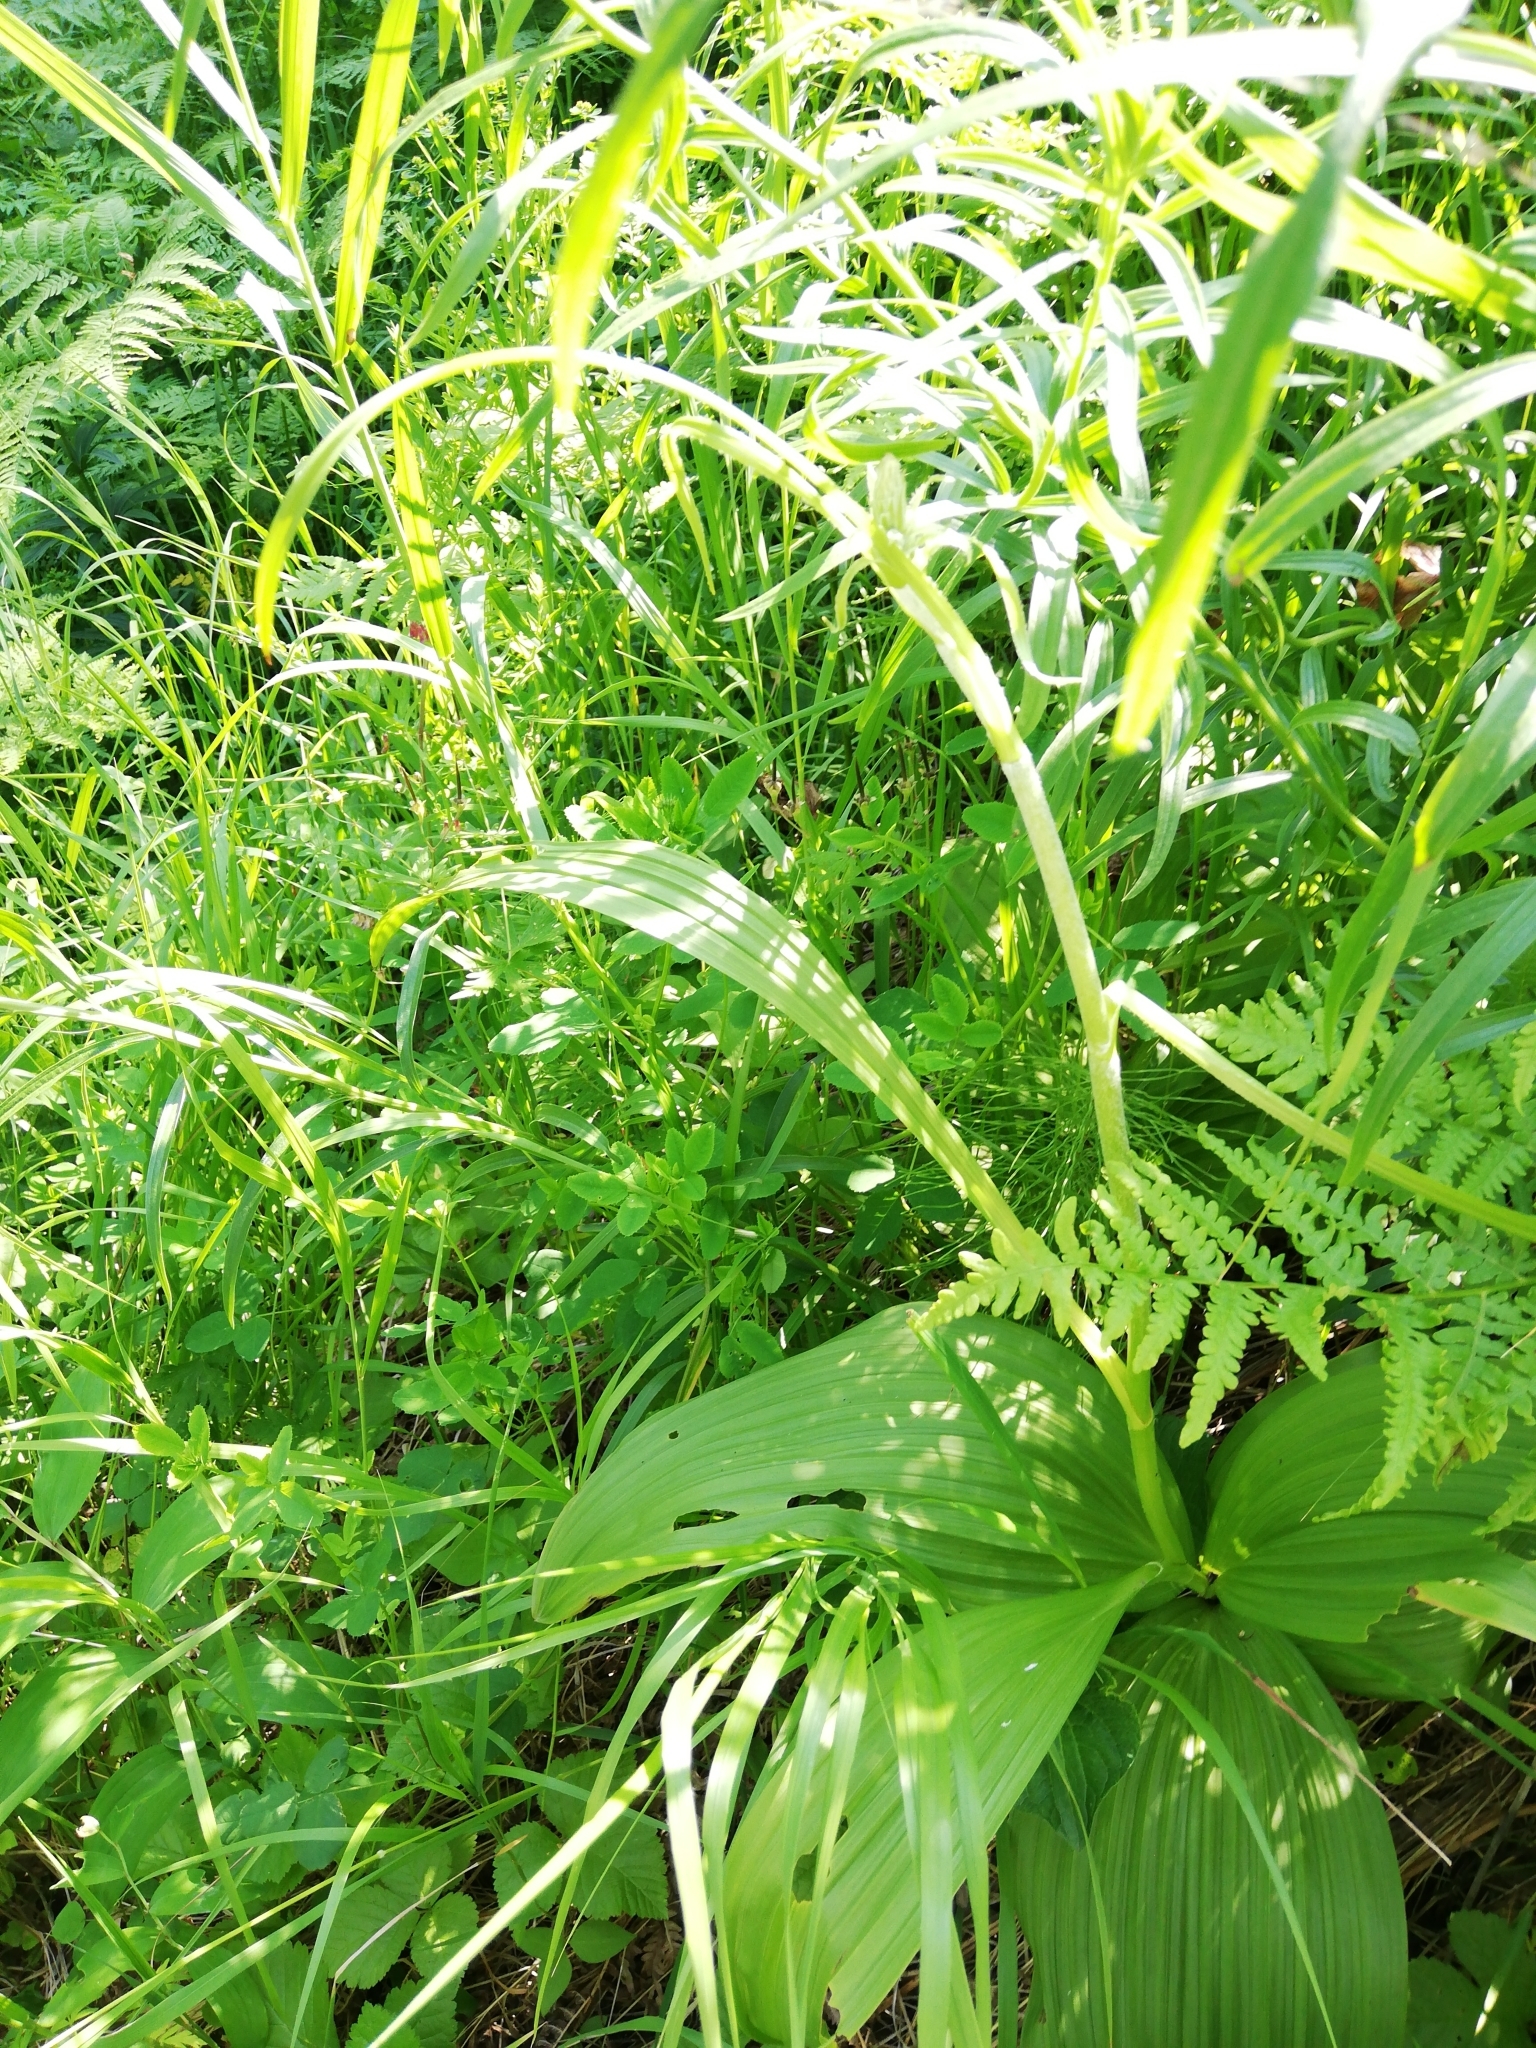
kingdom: Plantae
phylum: Tracheophyta
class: Liliopsida
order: Liliales
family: Melanthiaceae
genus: Veratrum
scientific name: Veratrum nigrum
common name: Black veratrum
